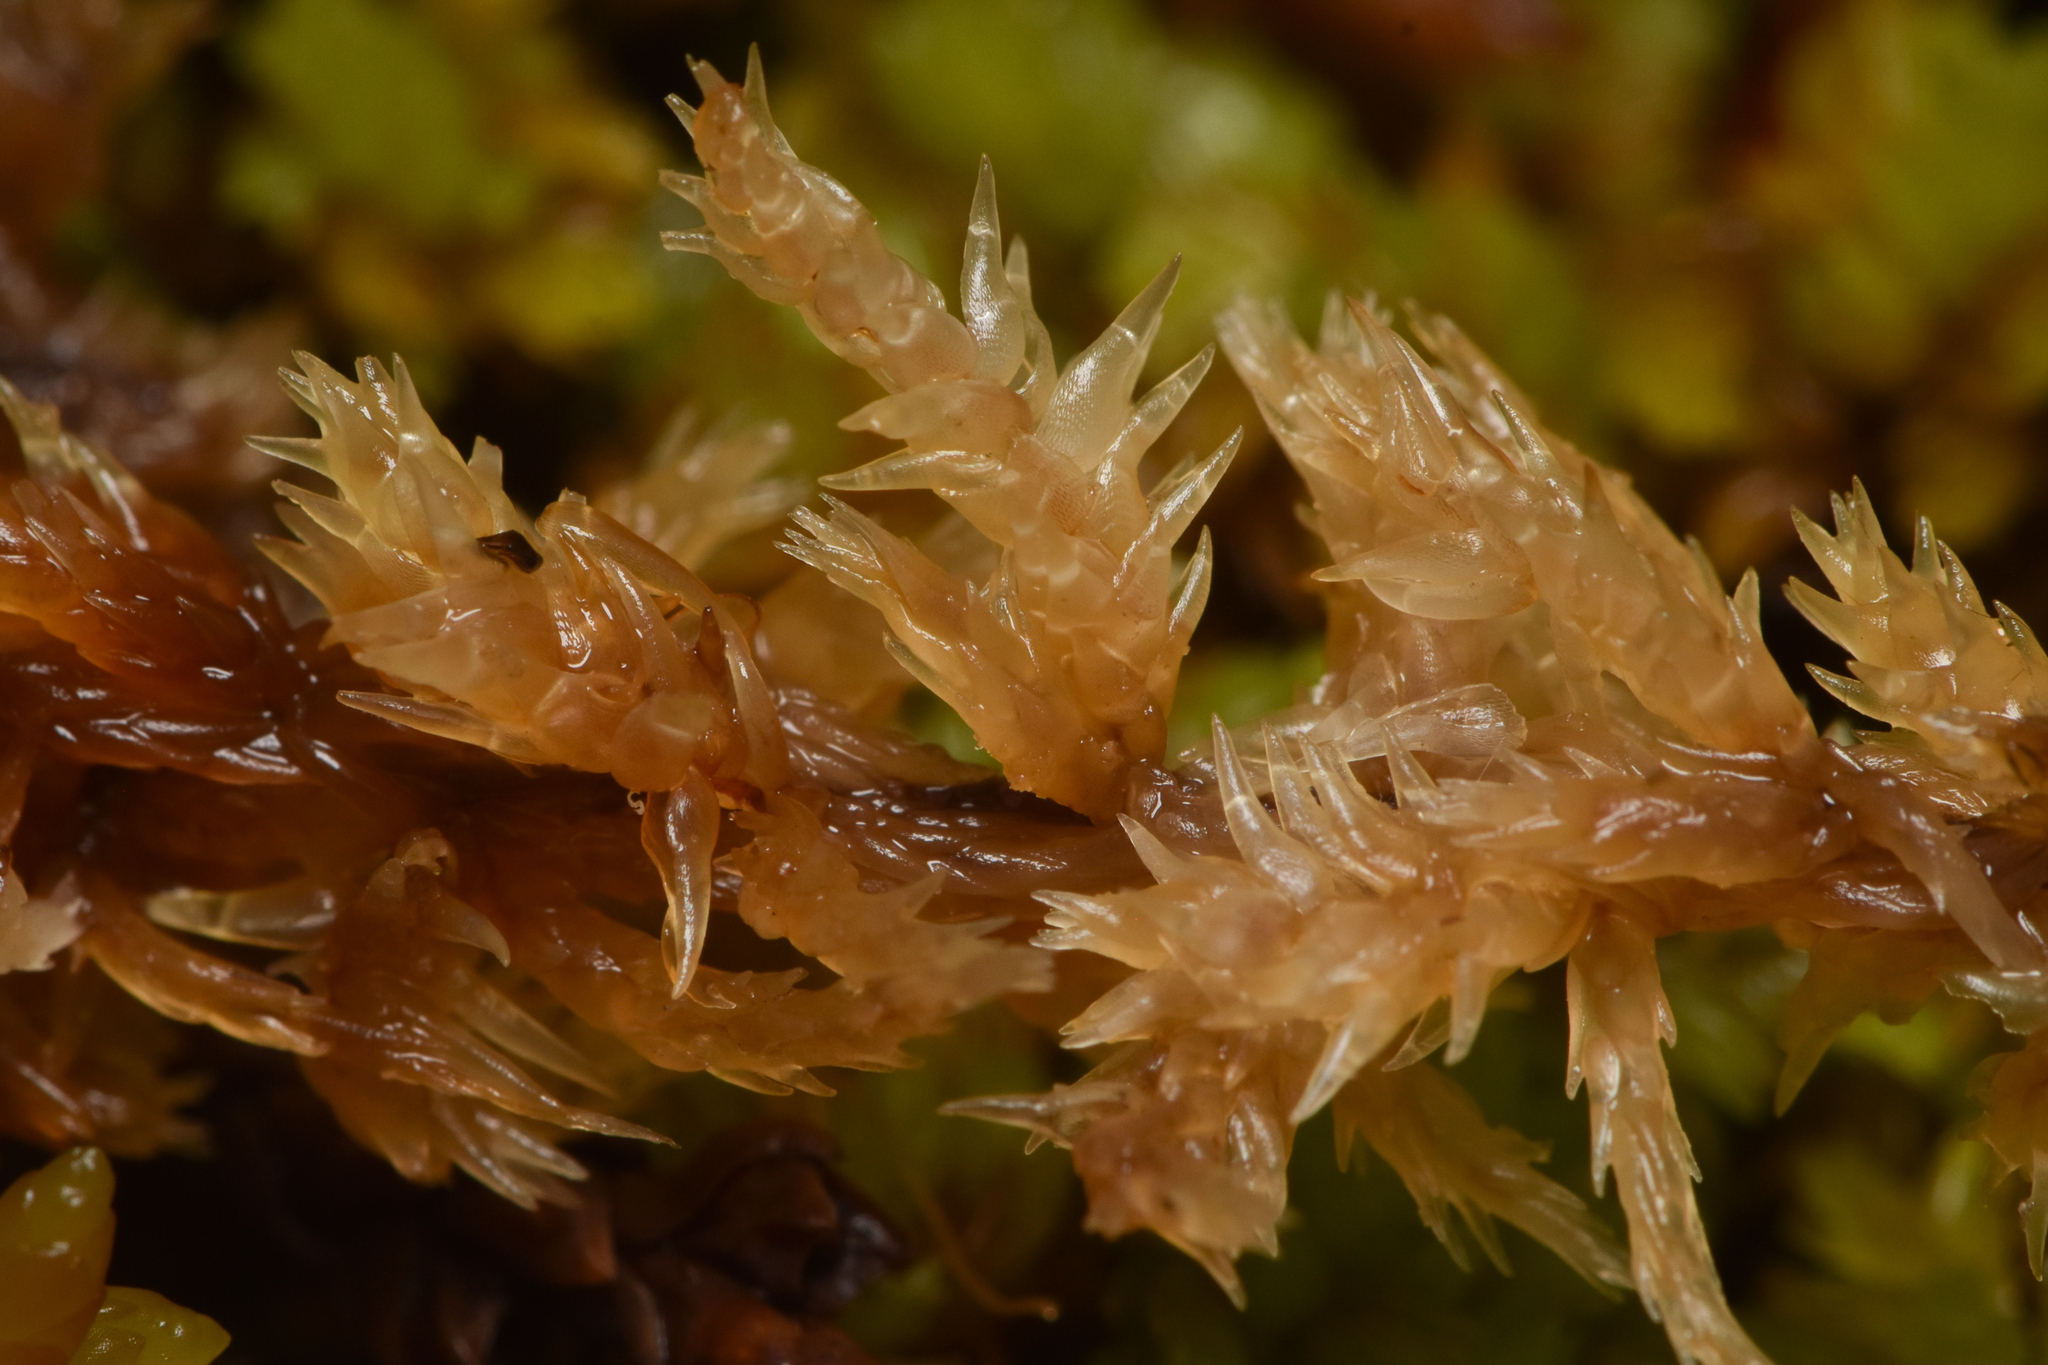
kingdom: Plantae
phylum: Bryophyta
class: Sphagnopsida
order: Sphagnales
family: Sphagnaceae
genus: Sphagnum
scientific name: Sphagnum compactum
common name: Compact peat moss
